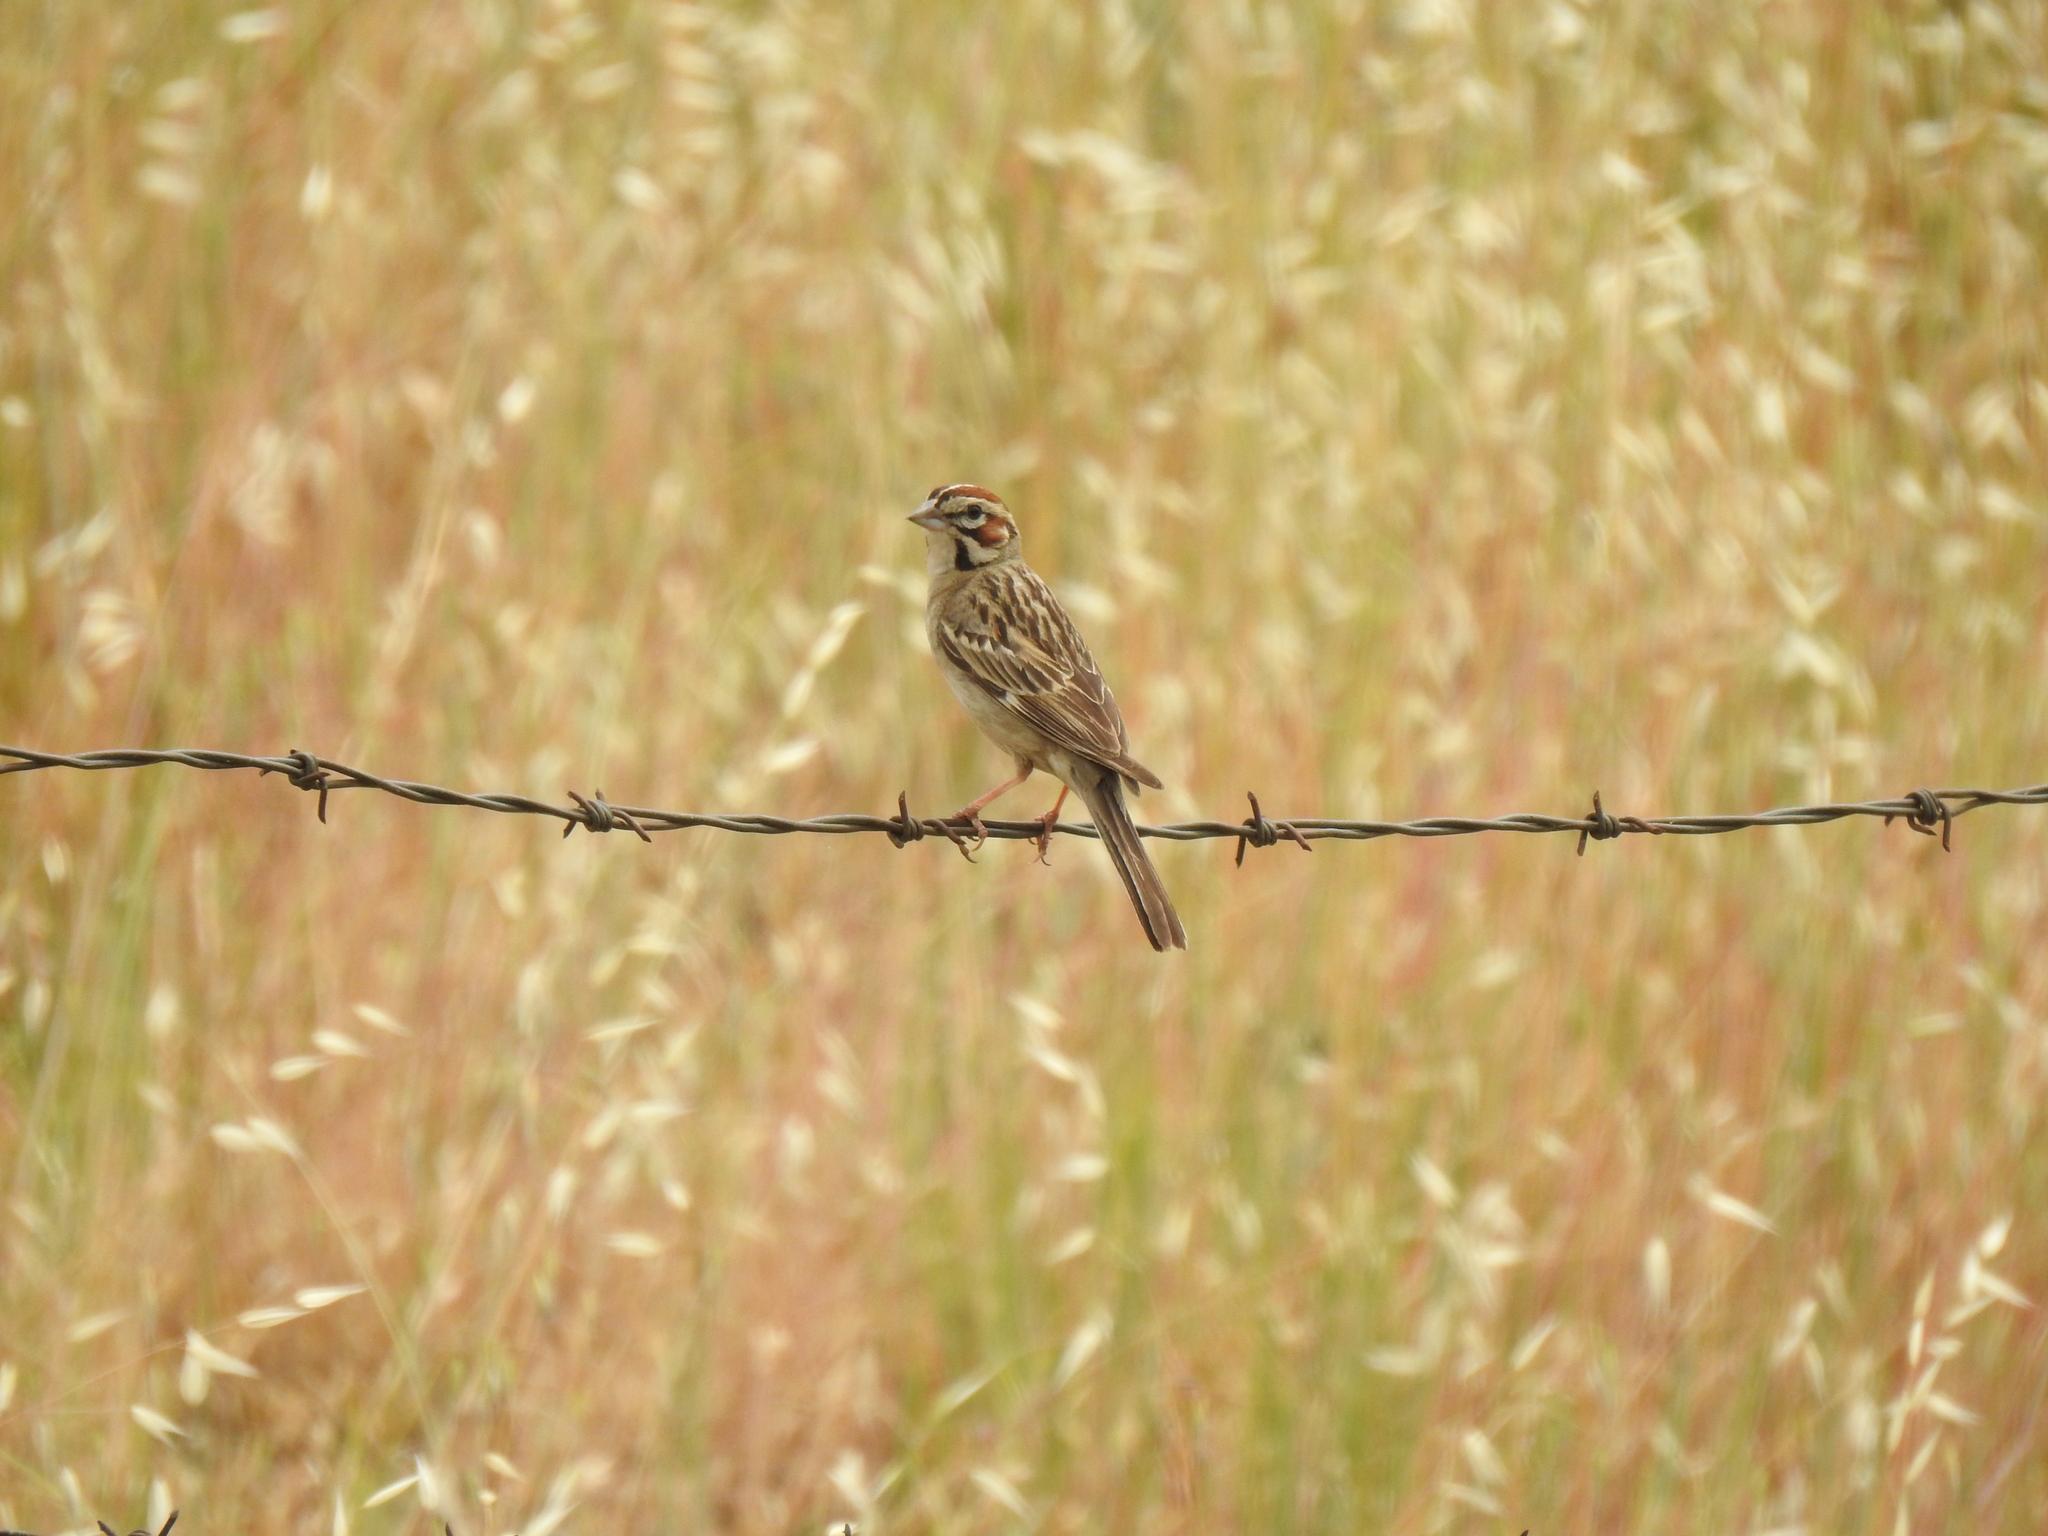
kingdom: Animalia
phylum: Chordata
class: Aves
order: Passeriformes
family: Passerellidae
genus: Chondestes
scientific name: Chondestes grammacus
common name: Lark sparrow
